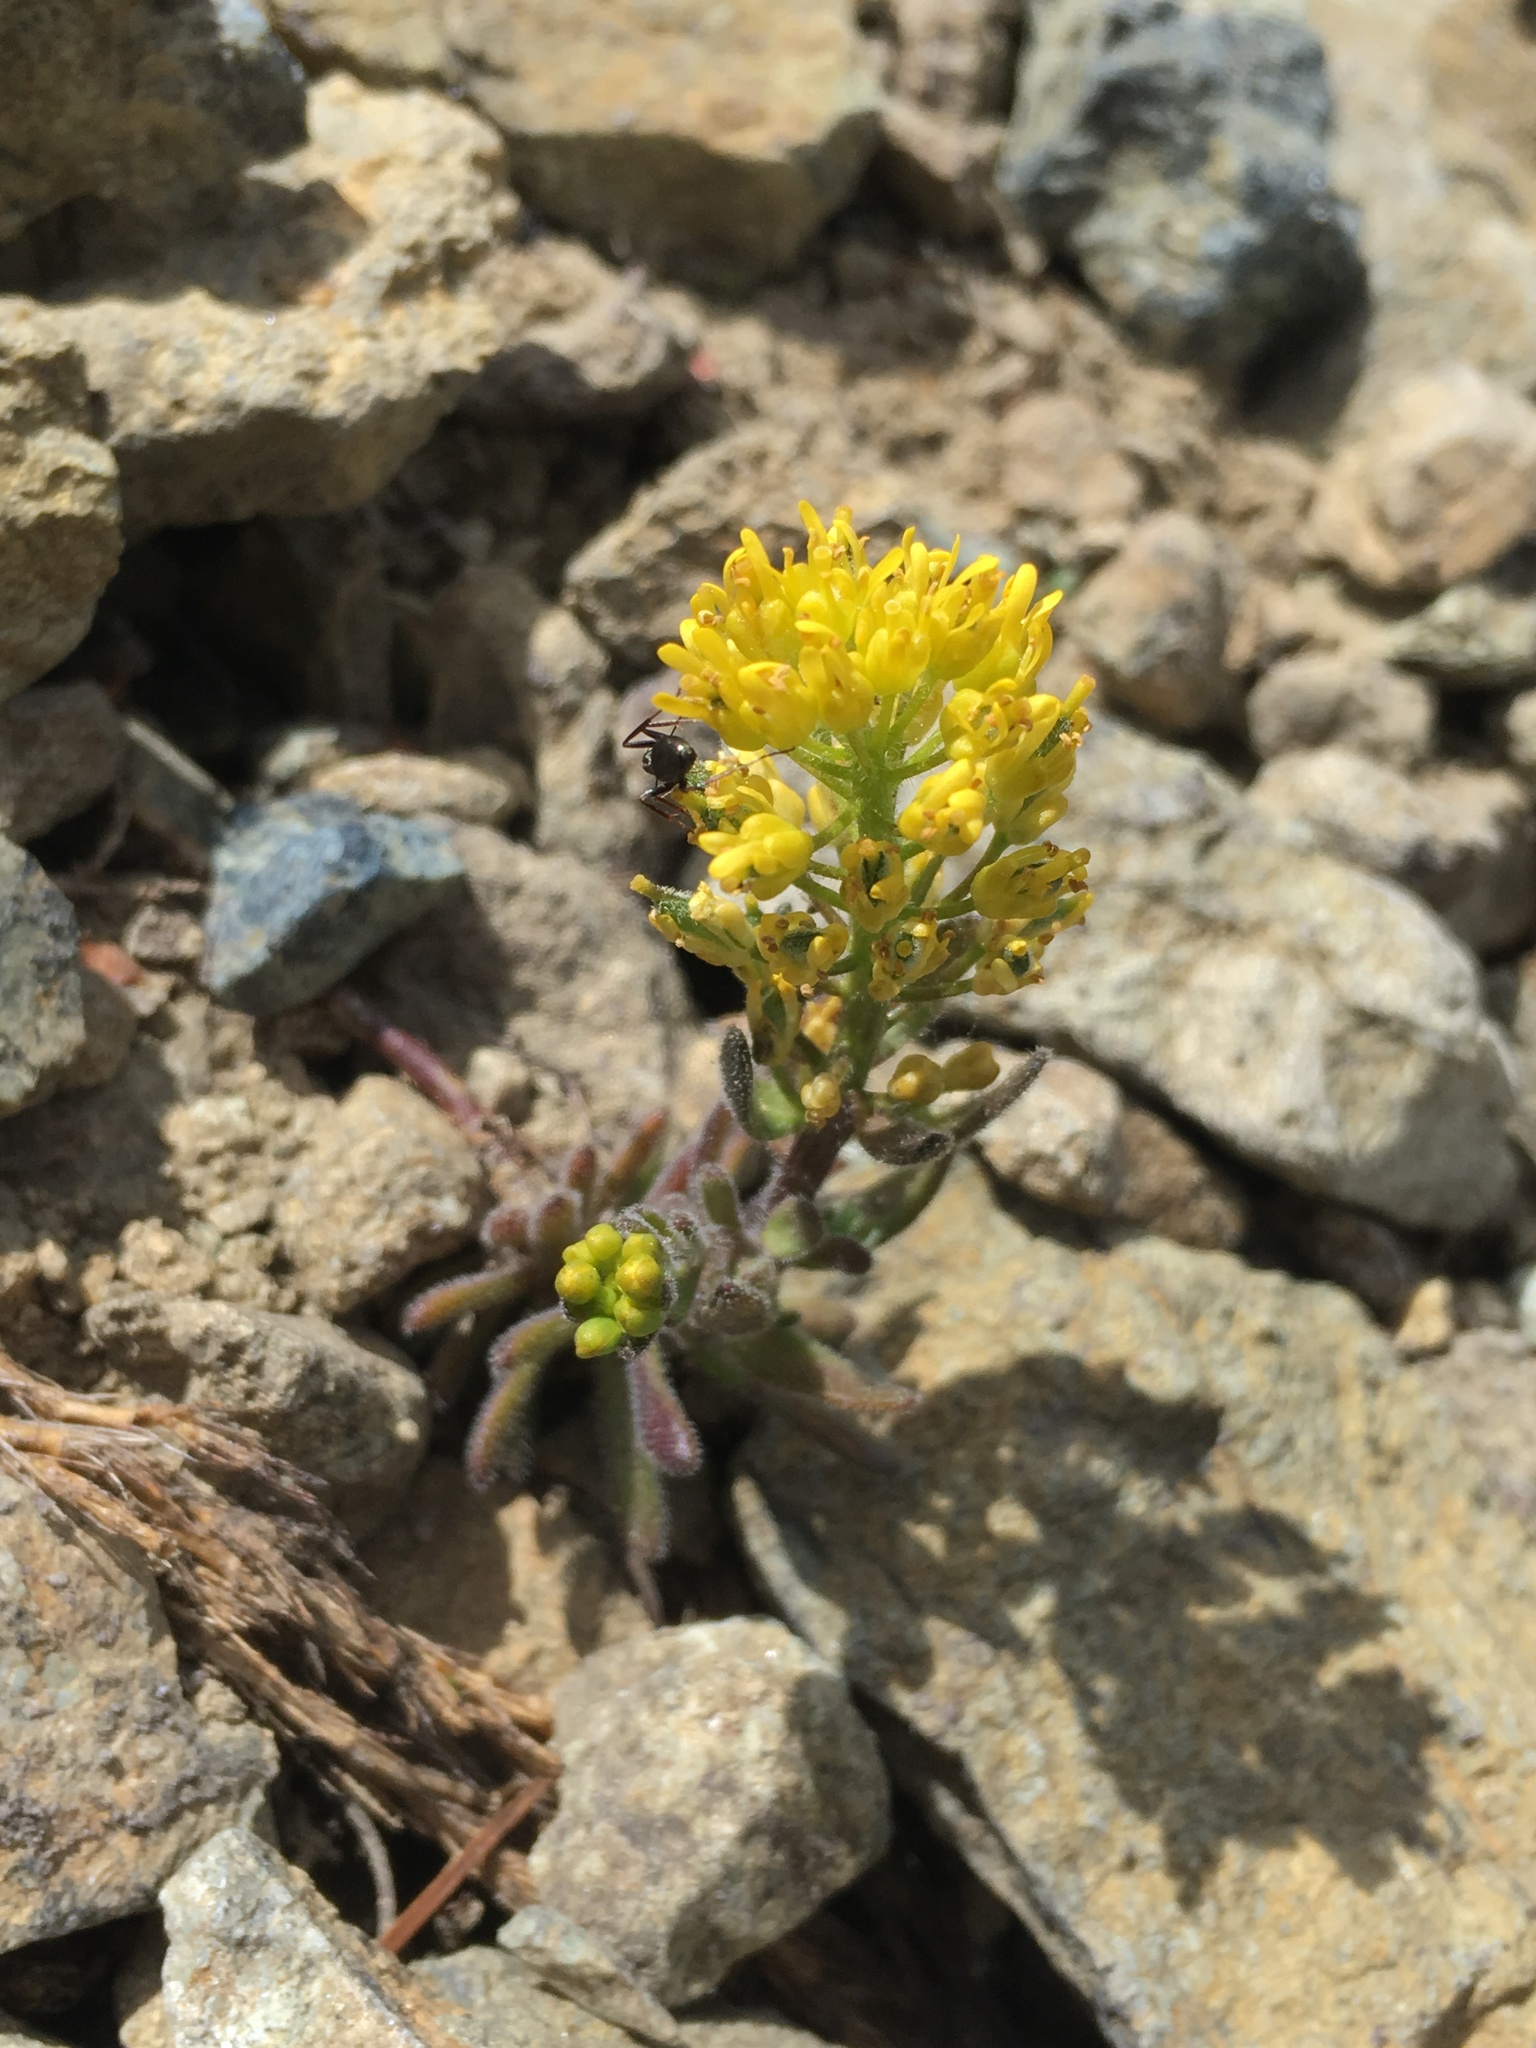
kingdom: Plantae
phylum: Tracheophyta
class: Magnoliopsida
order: Brassicales
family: Brassicaceae
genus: Draba
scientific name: Draba aureola
